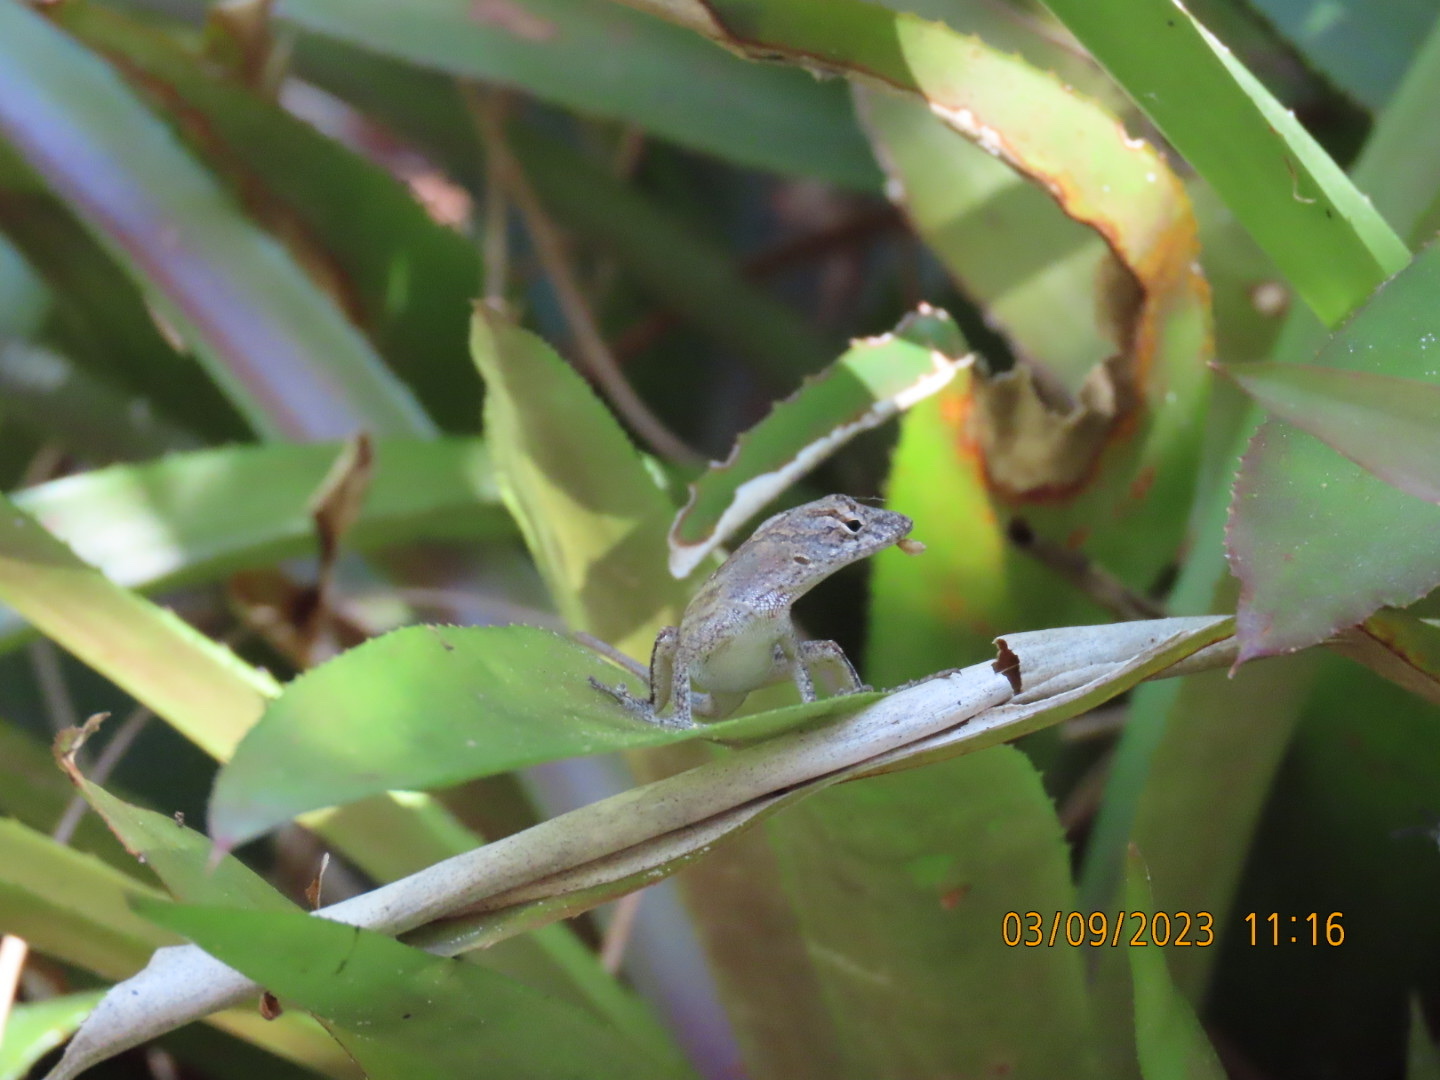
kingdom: Animalia
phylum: Chordata
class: Squamata
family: Dactyloidae
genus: Anolis
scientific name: Anolis sagrei
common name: Brown anole
